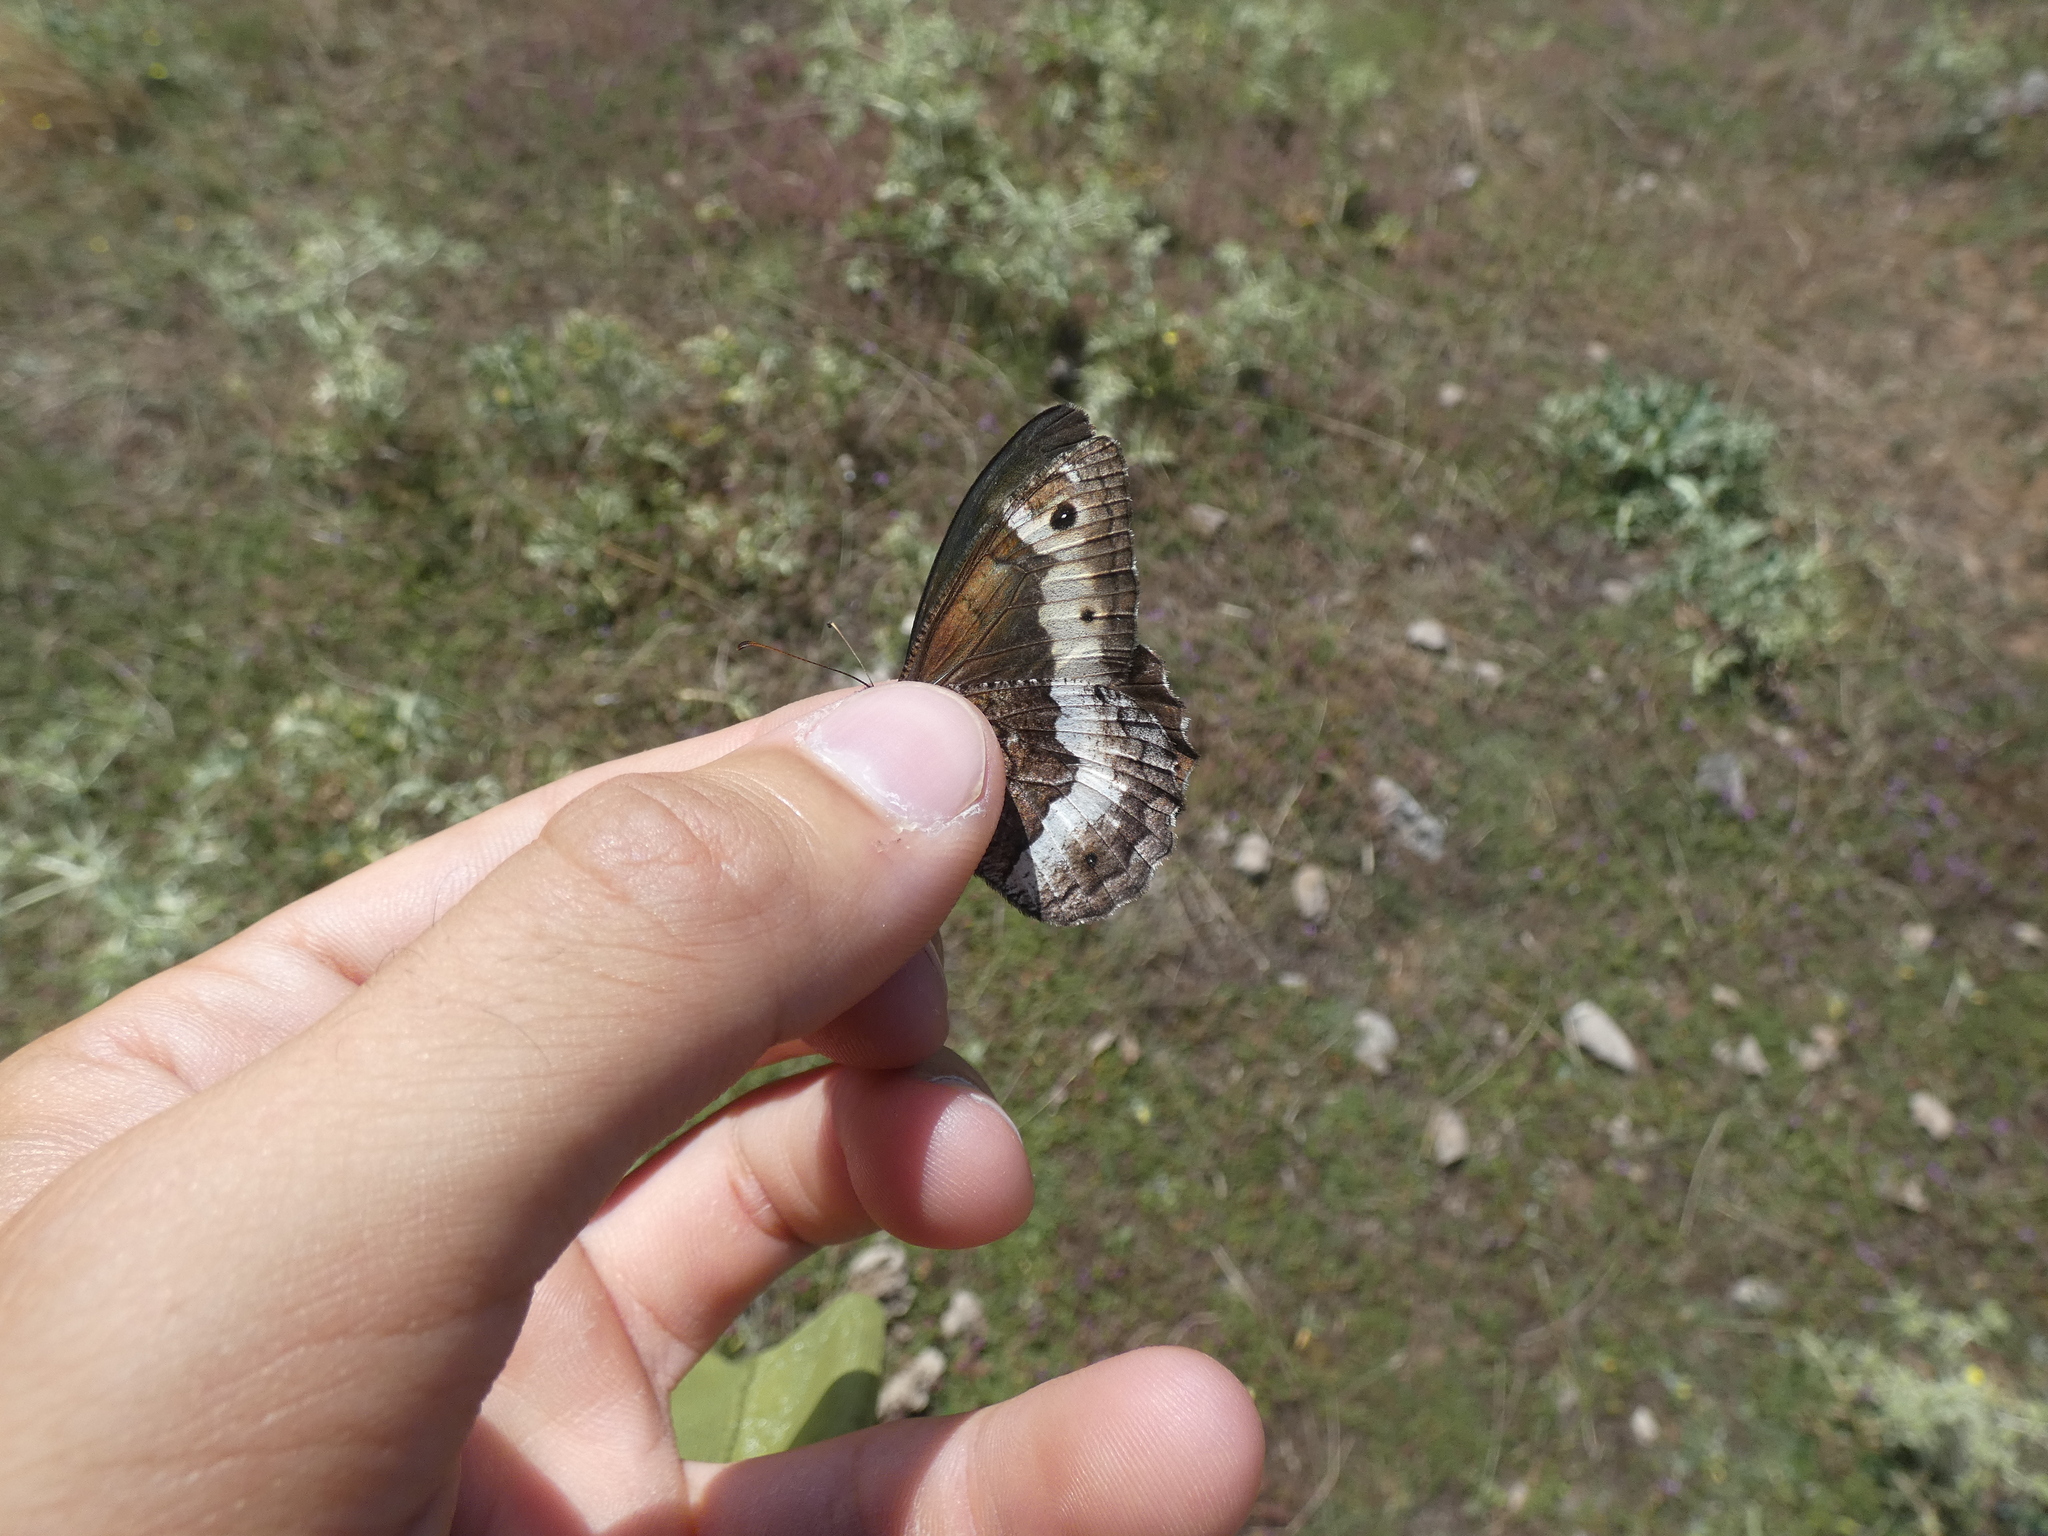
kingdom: Animalia
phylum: Arthropoda
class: Insecta
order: Lepidoptera
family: Nymphalidae
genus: Hipparchia
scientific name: Hipparchia fagi
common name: Woodland grayling
